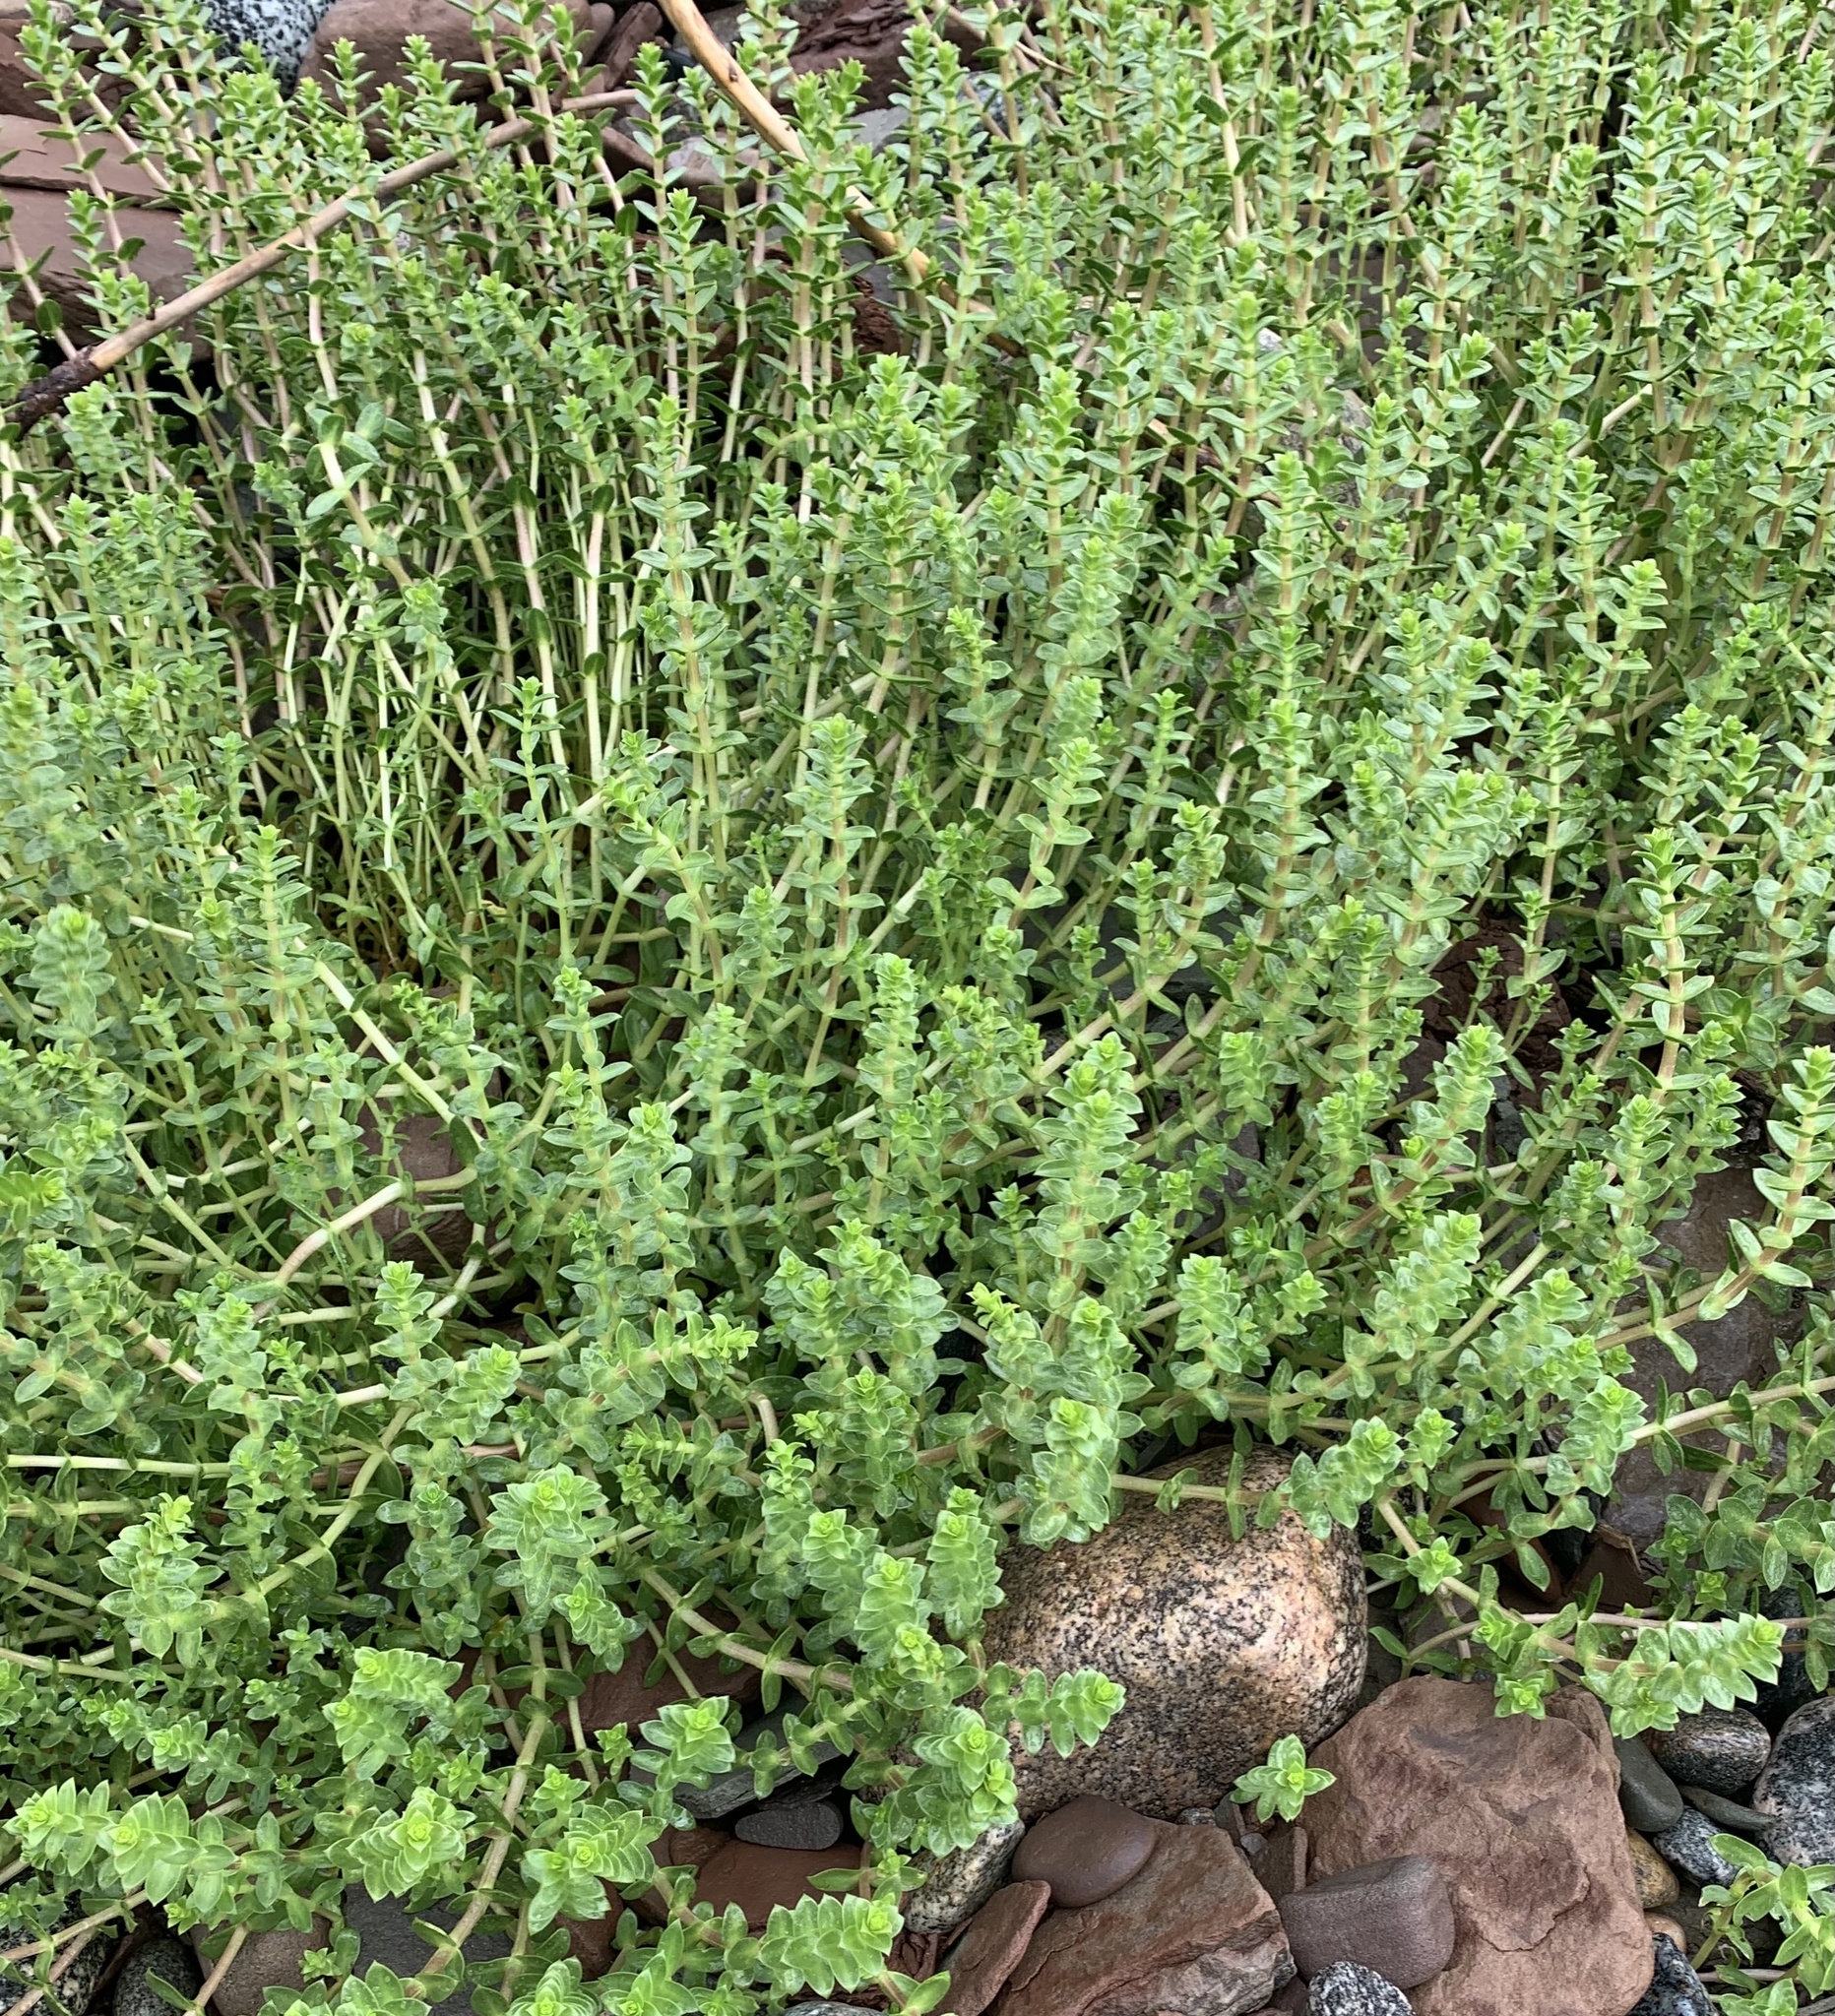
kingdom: Plantae
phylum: Tracheophyta
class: Magnoliopsida
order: Caryophyllales
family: Caryophyllaceae
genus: Honckenya
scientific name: Honckenya peploides
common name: Sea sandwort
